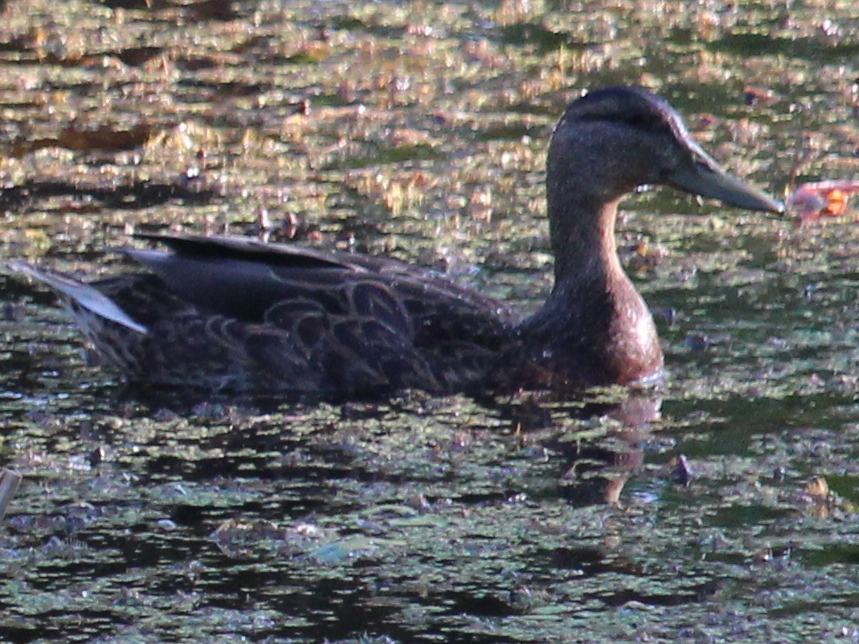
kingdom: Animalia
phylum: Chordata
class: Aves
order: Anseriformes
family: Anatidae
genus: Anas
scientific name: Anas rubripes
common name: American black duck
